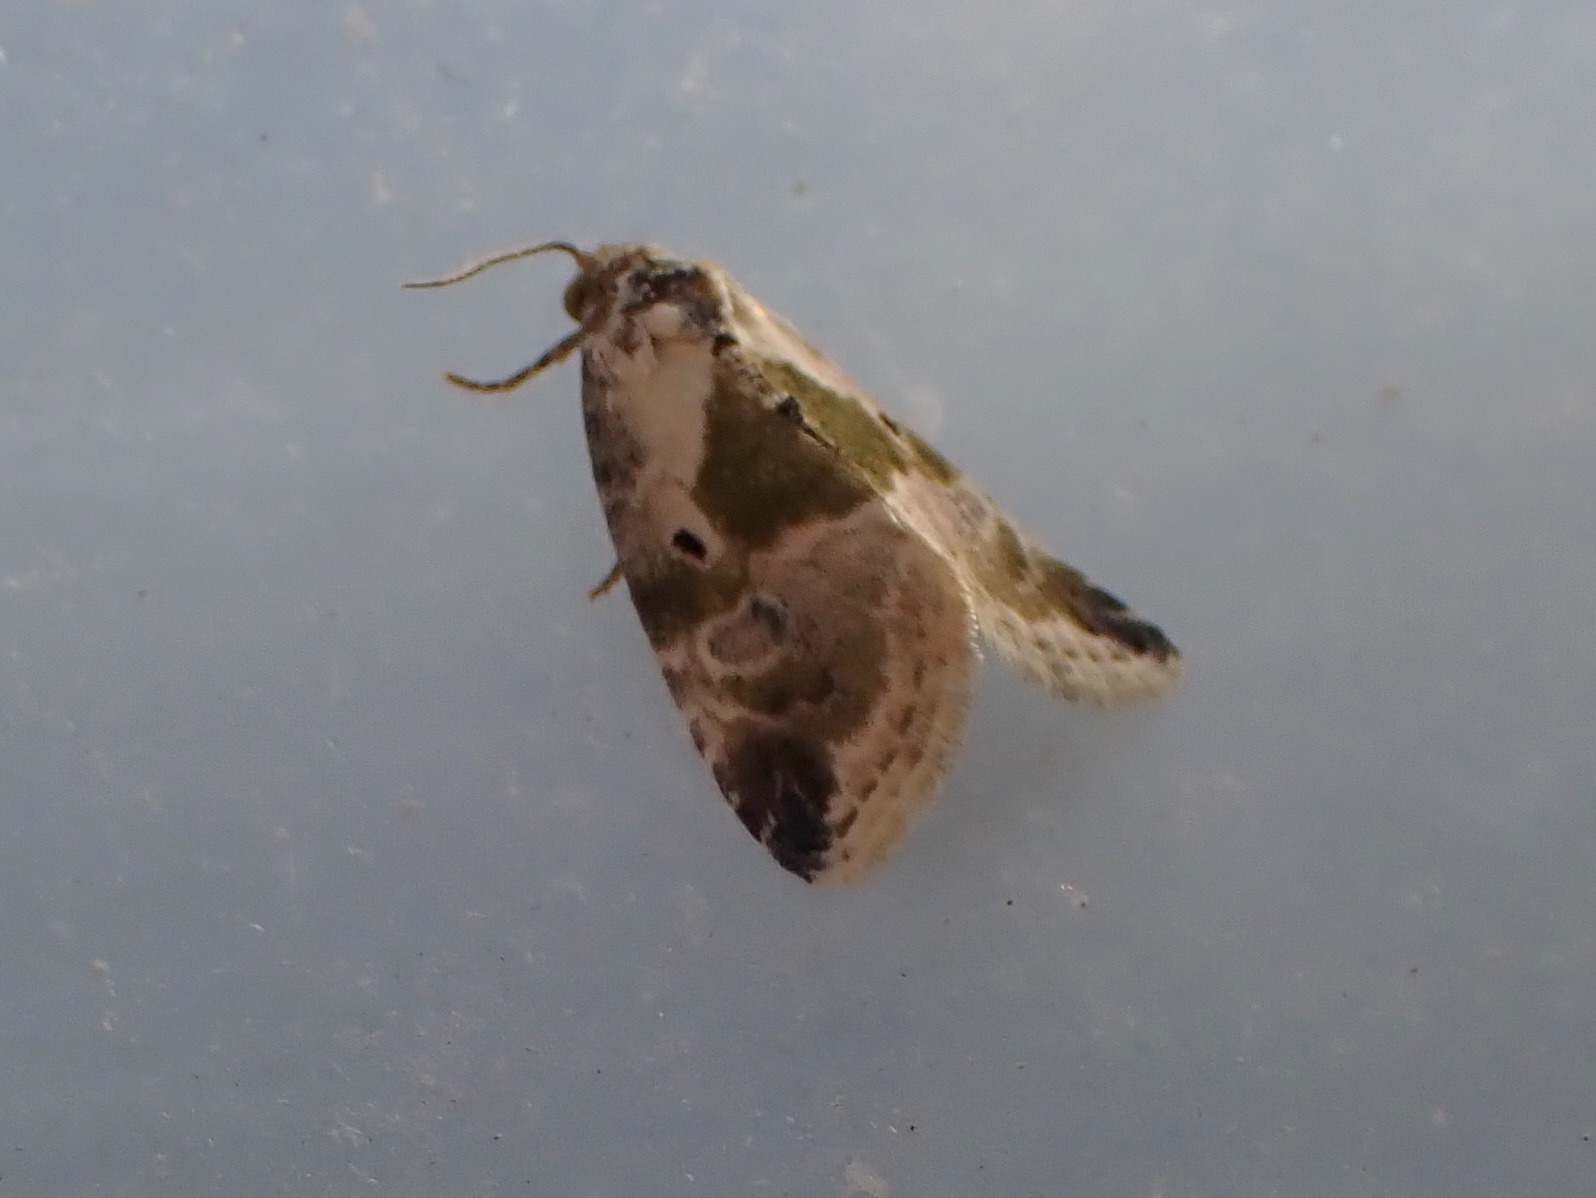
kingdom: Animalia
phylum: Arthropoda
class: Insecta
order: Hymenoptera
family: Ichneumonidae
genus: Pimpla
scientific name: Pimpla pedalis
